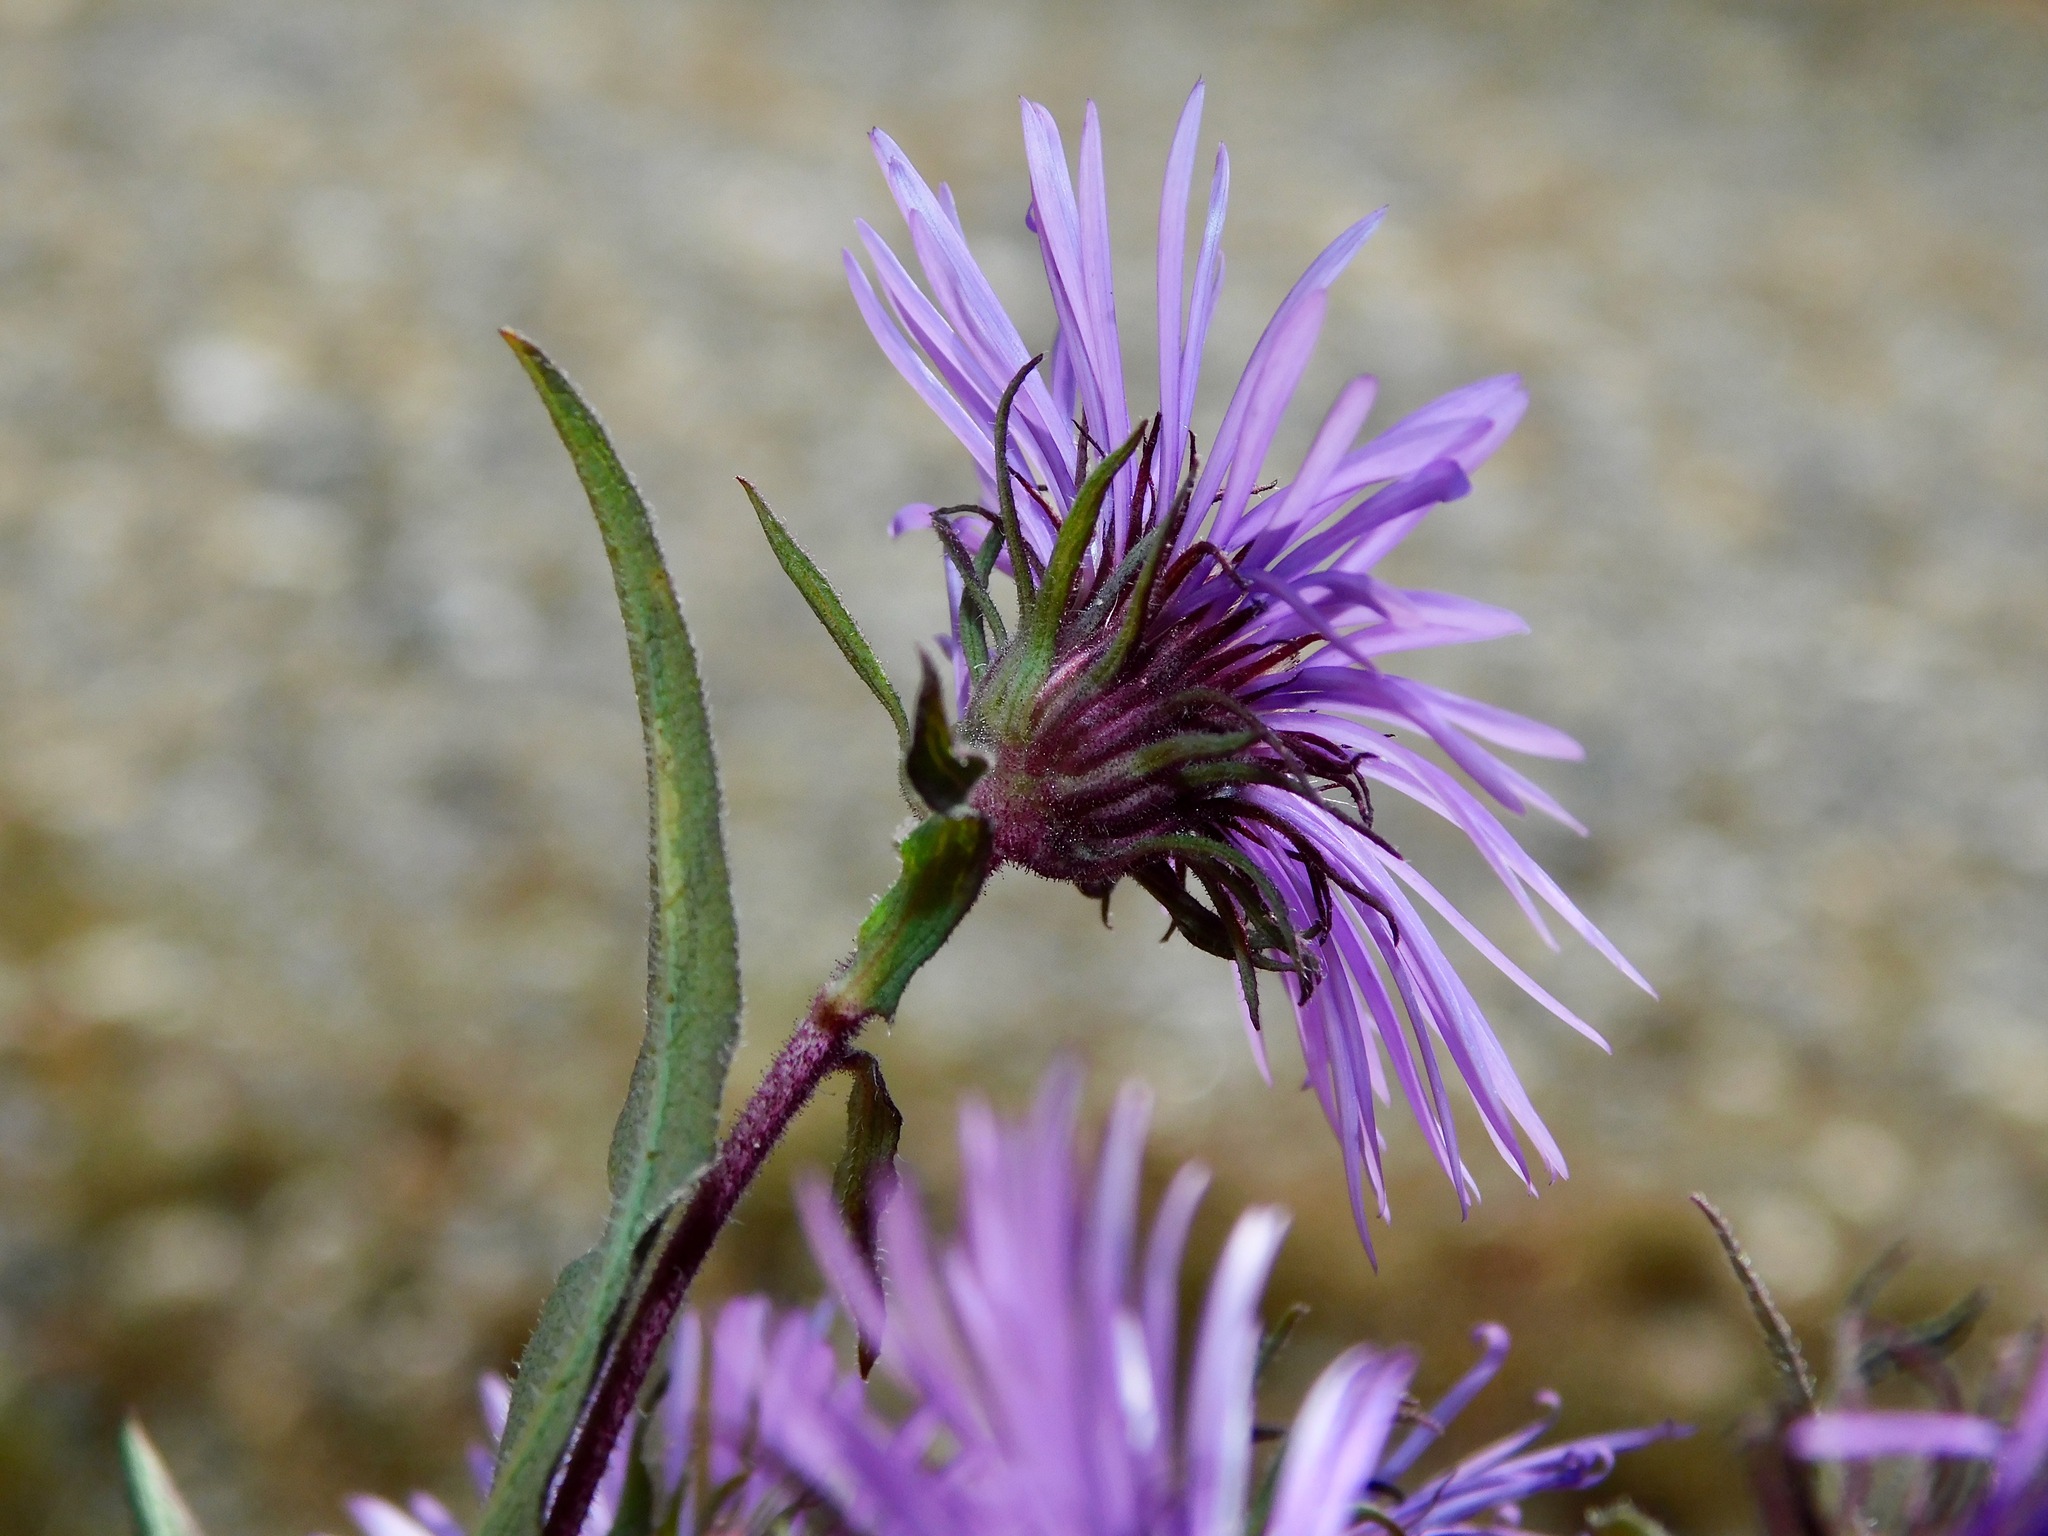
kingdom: Plantae
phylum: Tracheophyta
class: Magnoliopsida
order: Asterales
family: Asteraceae
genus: Symphyotrichum
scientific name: Symphyotrichum novae-angliae
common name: Michaelmas daisy
